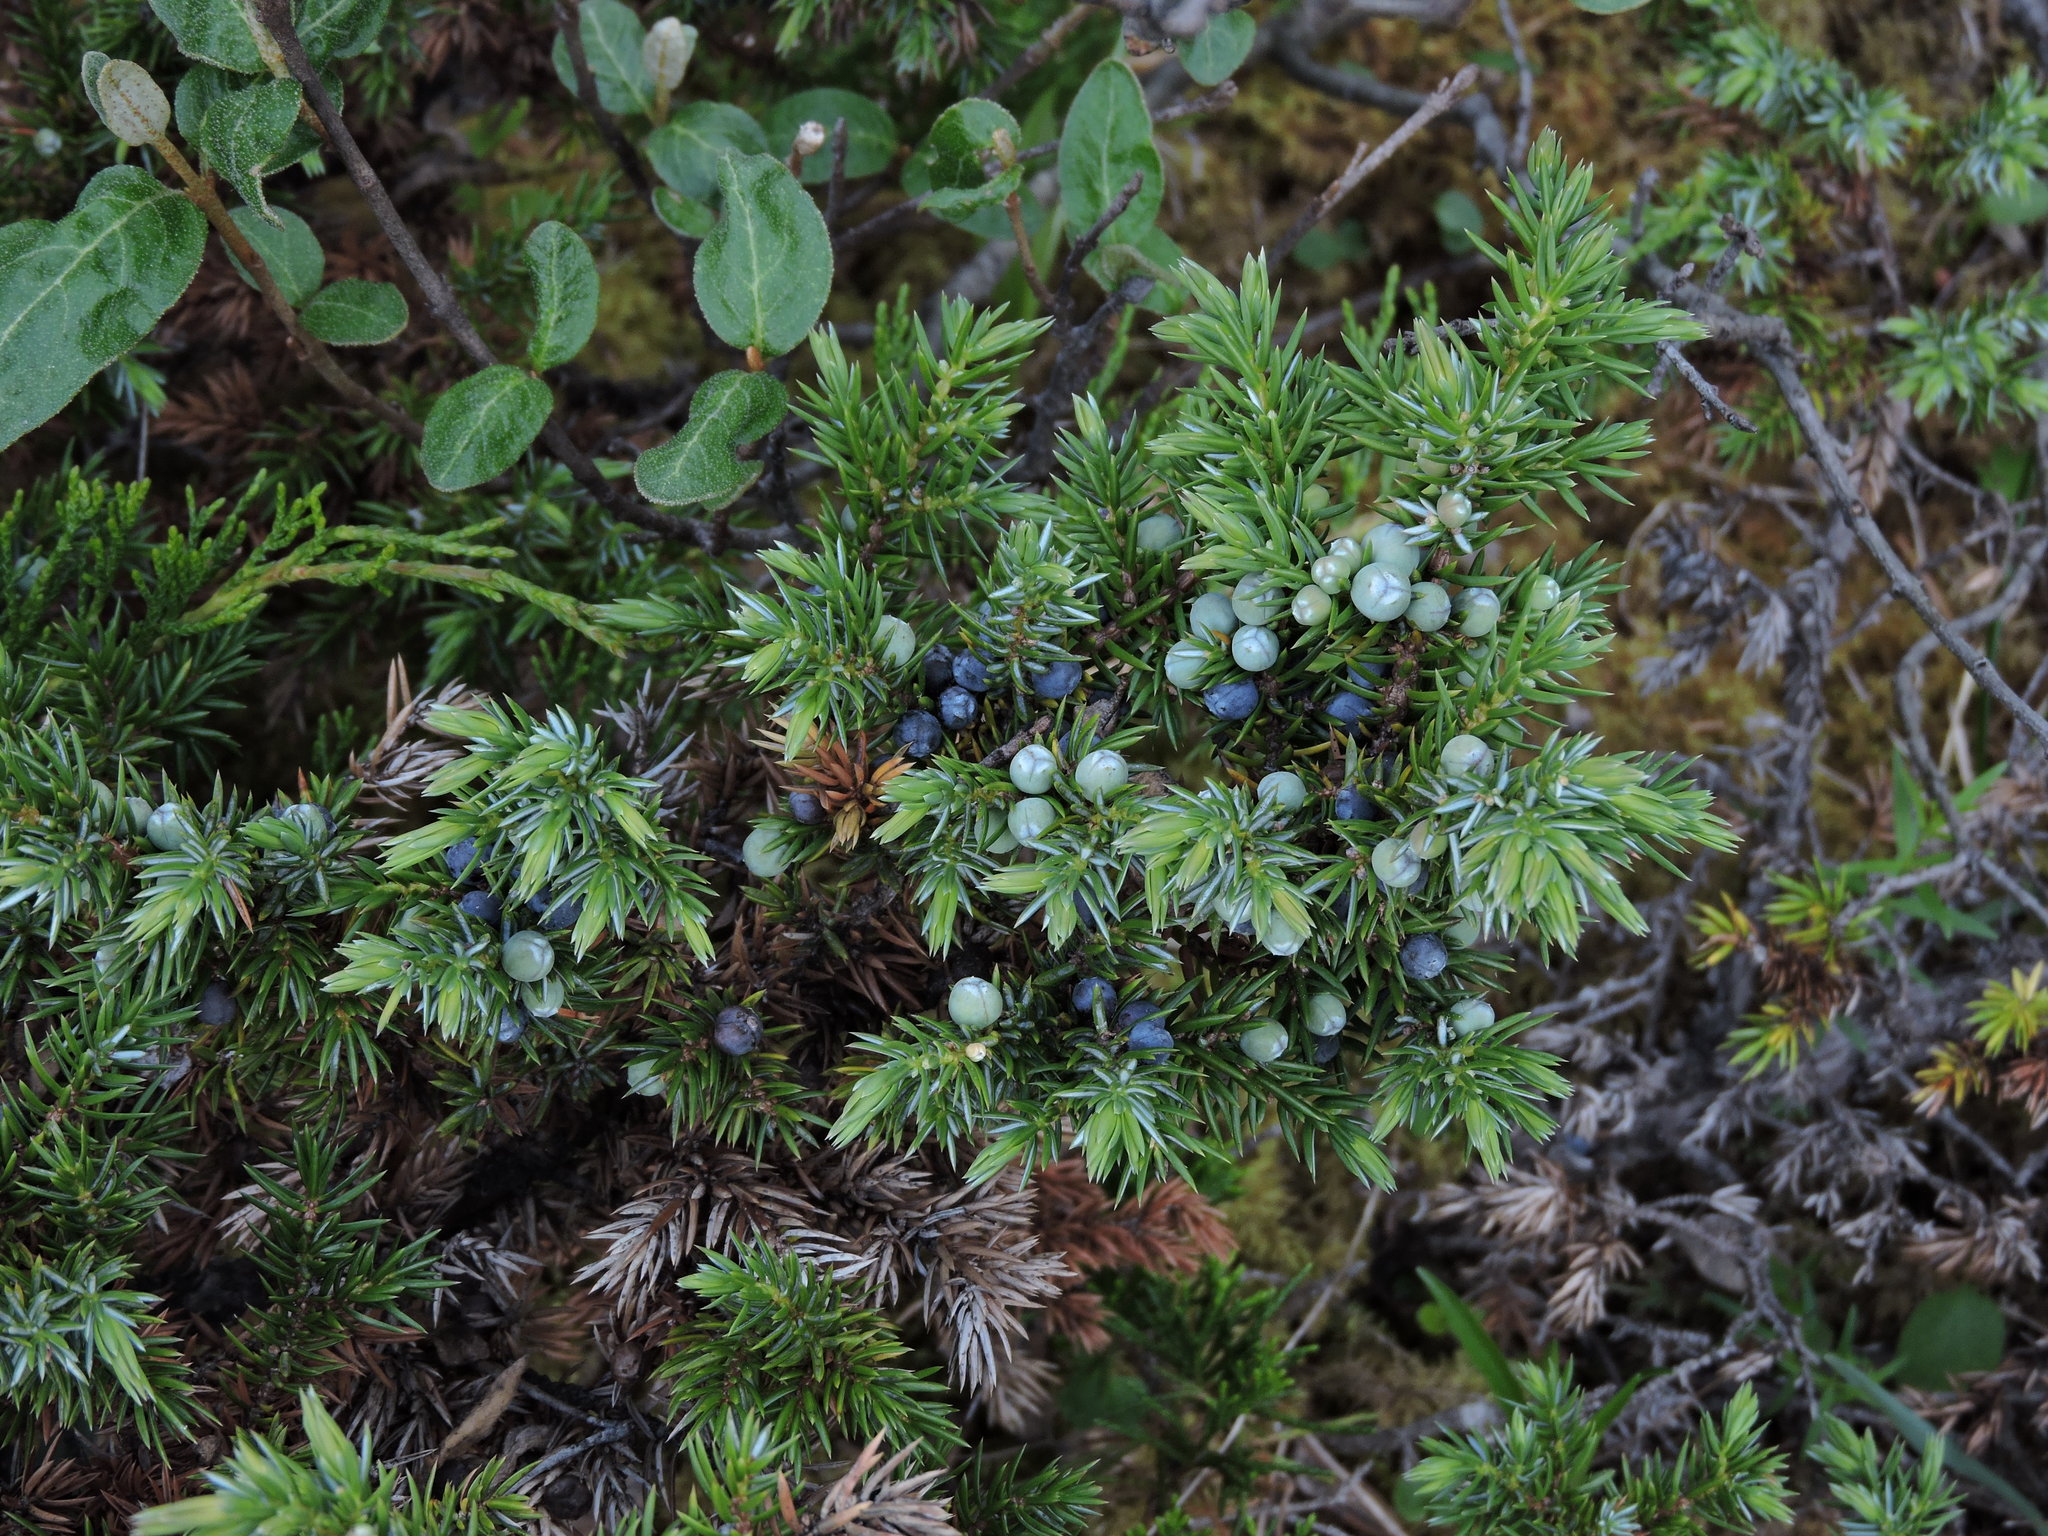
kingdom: Plantae
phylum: Tracheophyta
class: Pinopsida
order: Pinales
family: Cupressaceae
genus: Juniperus
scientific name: Juniperus communis
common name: Common juniper
